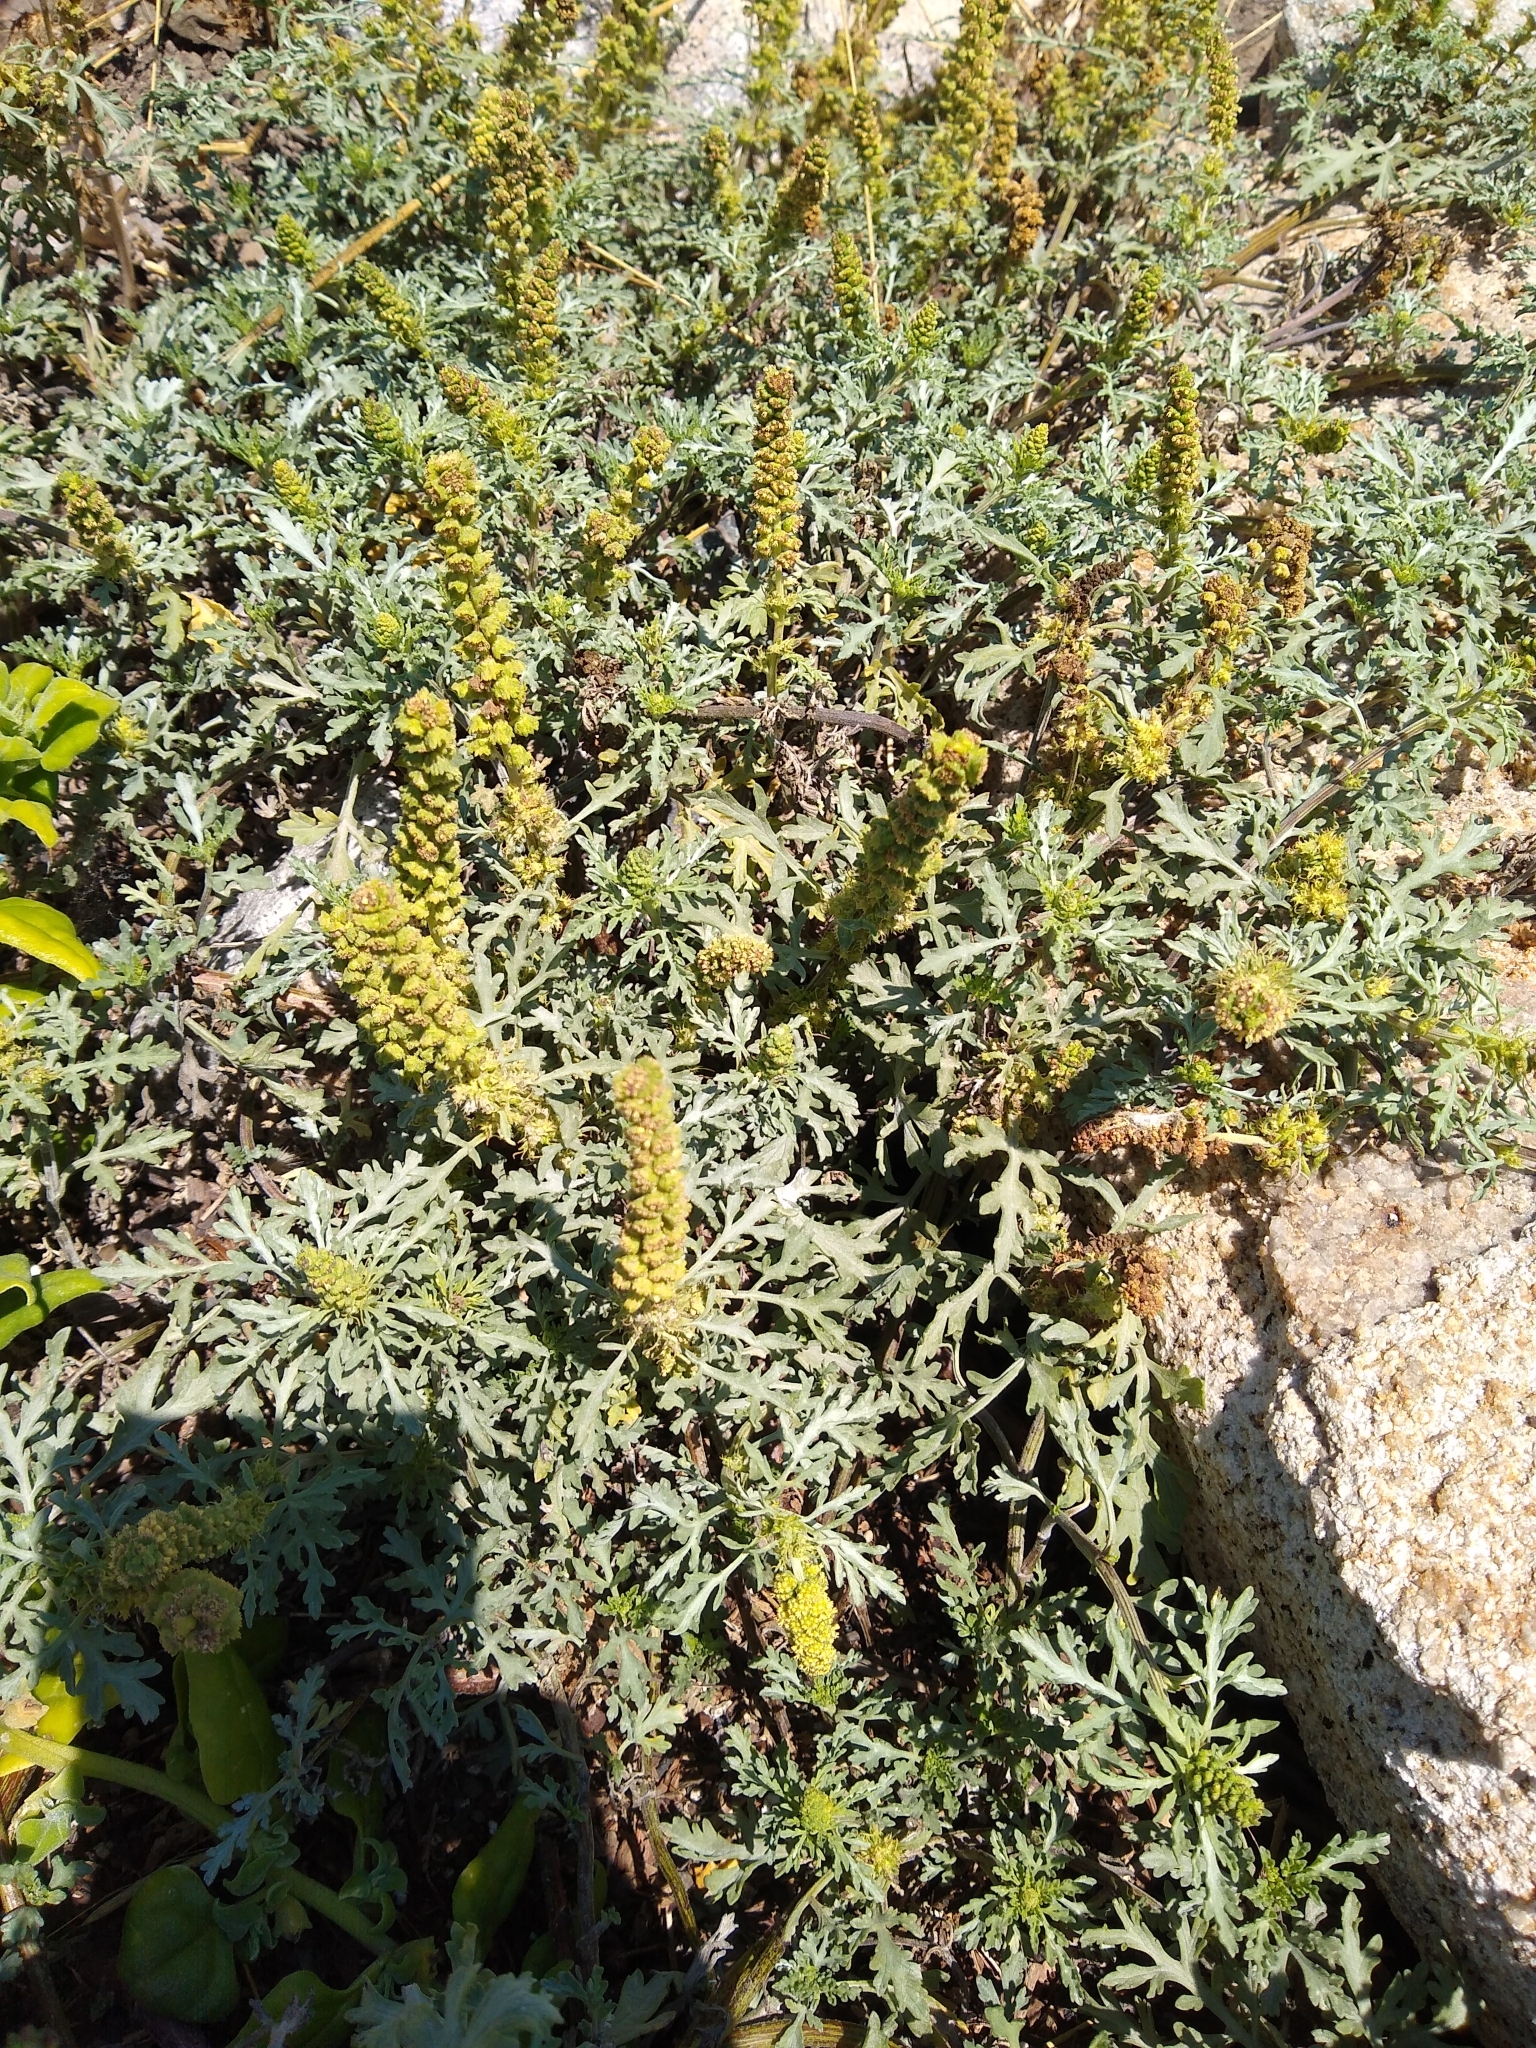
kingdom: Plantae
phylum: Tracheophyta
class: Magnoliopsida
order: Asterales
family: Asteraceae
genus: Ambrosia
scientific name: Ambrosia chamissonis
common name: Beachbur
